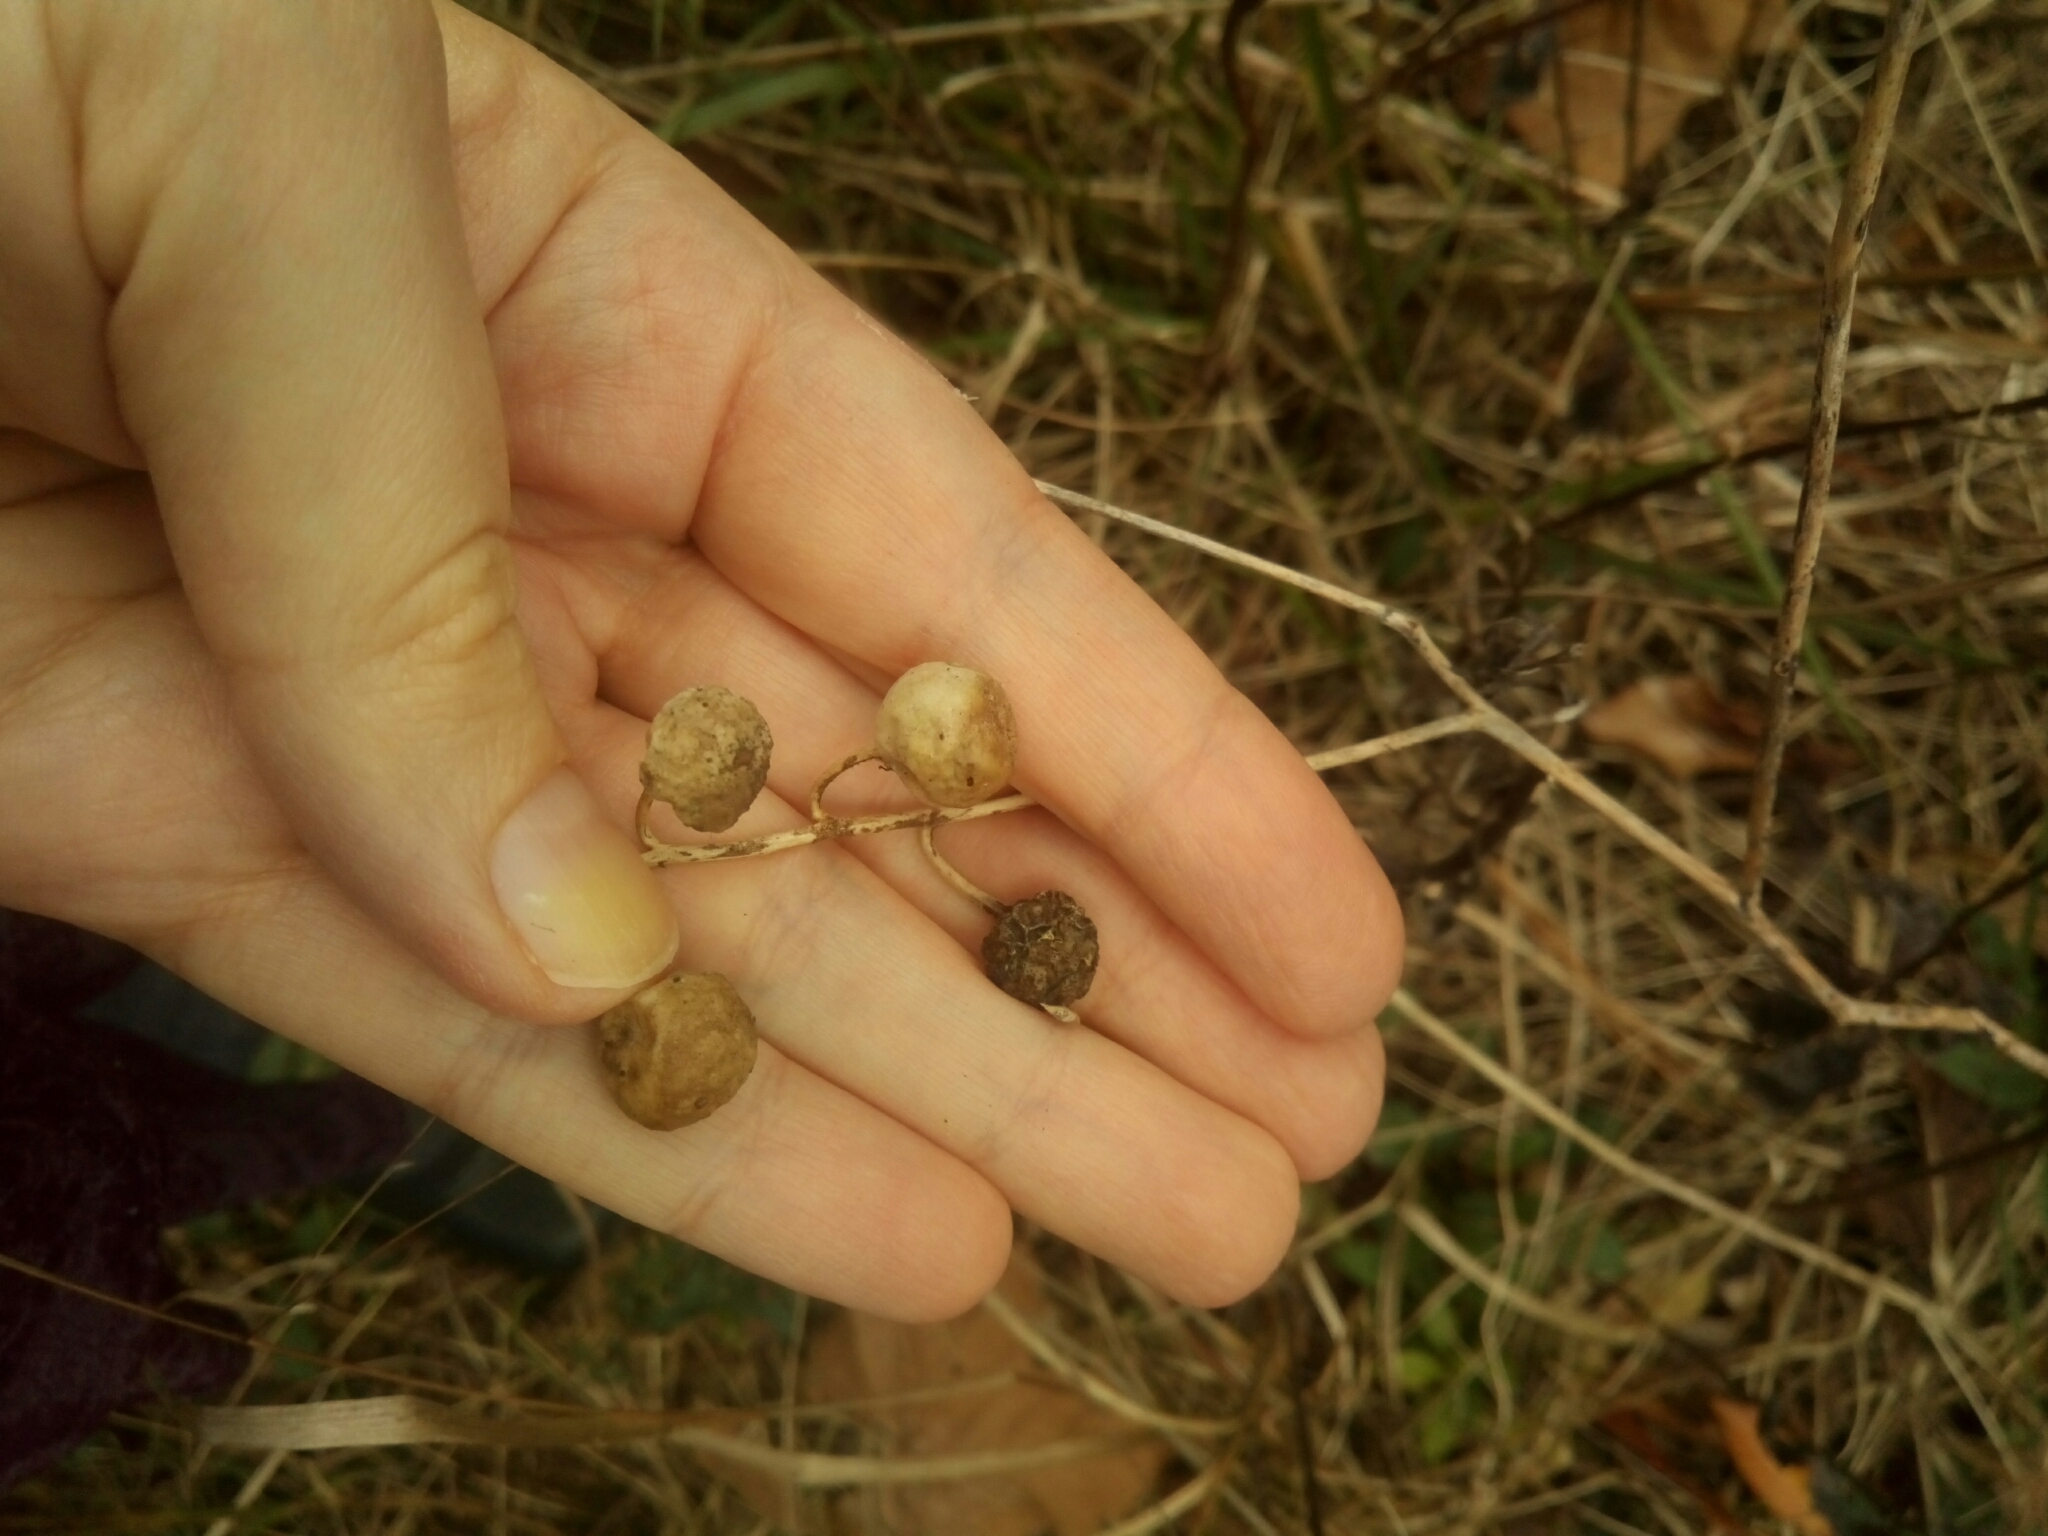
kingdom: Plantae
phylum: Tracheophyta
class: Magnoliopsida
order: Solanales
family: Solanaceae
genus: Solanum
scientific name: Solanum carolinense
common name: Horse-nettle
